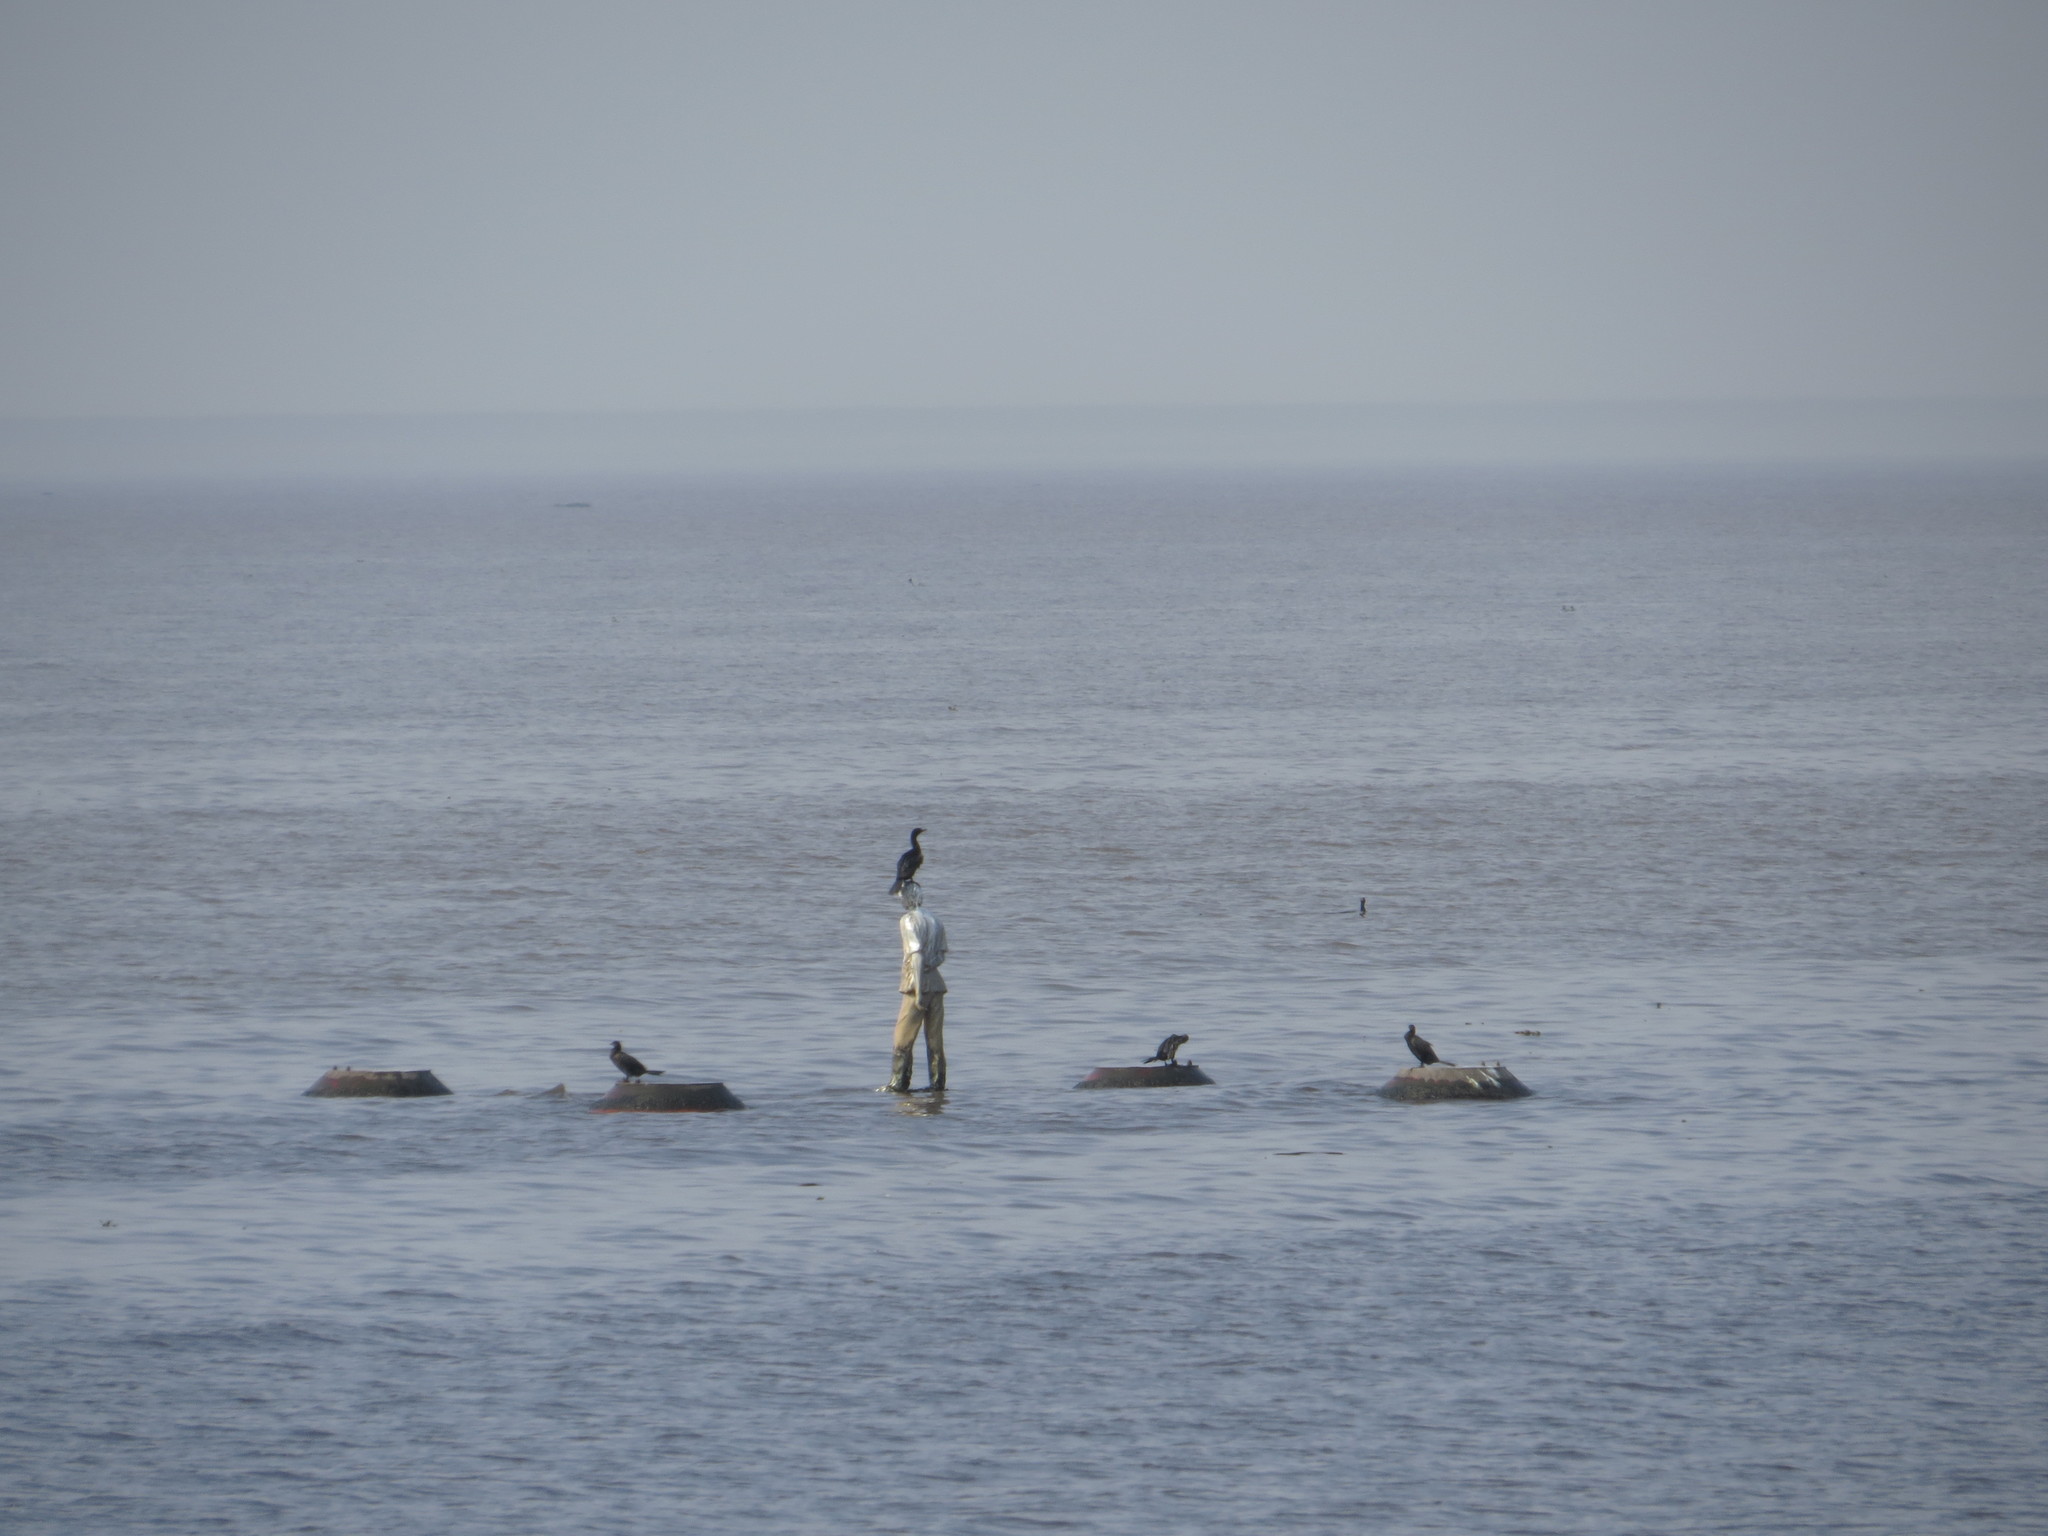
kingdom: Animalia
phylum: Chordata
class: Aves
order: Suliformes
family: Phalacrocoracidae
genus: Phalacrocorax
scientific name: Phalacrocorax brasilianus
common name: Neotropic cormorant
